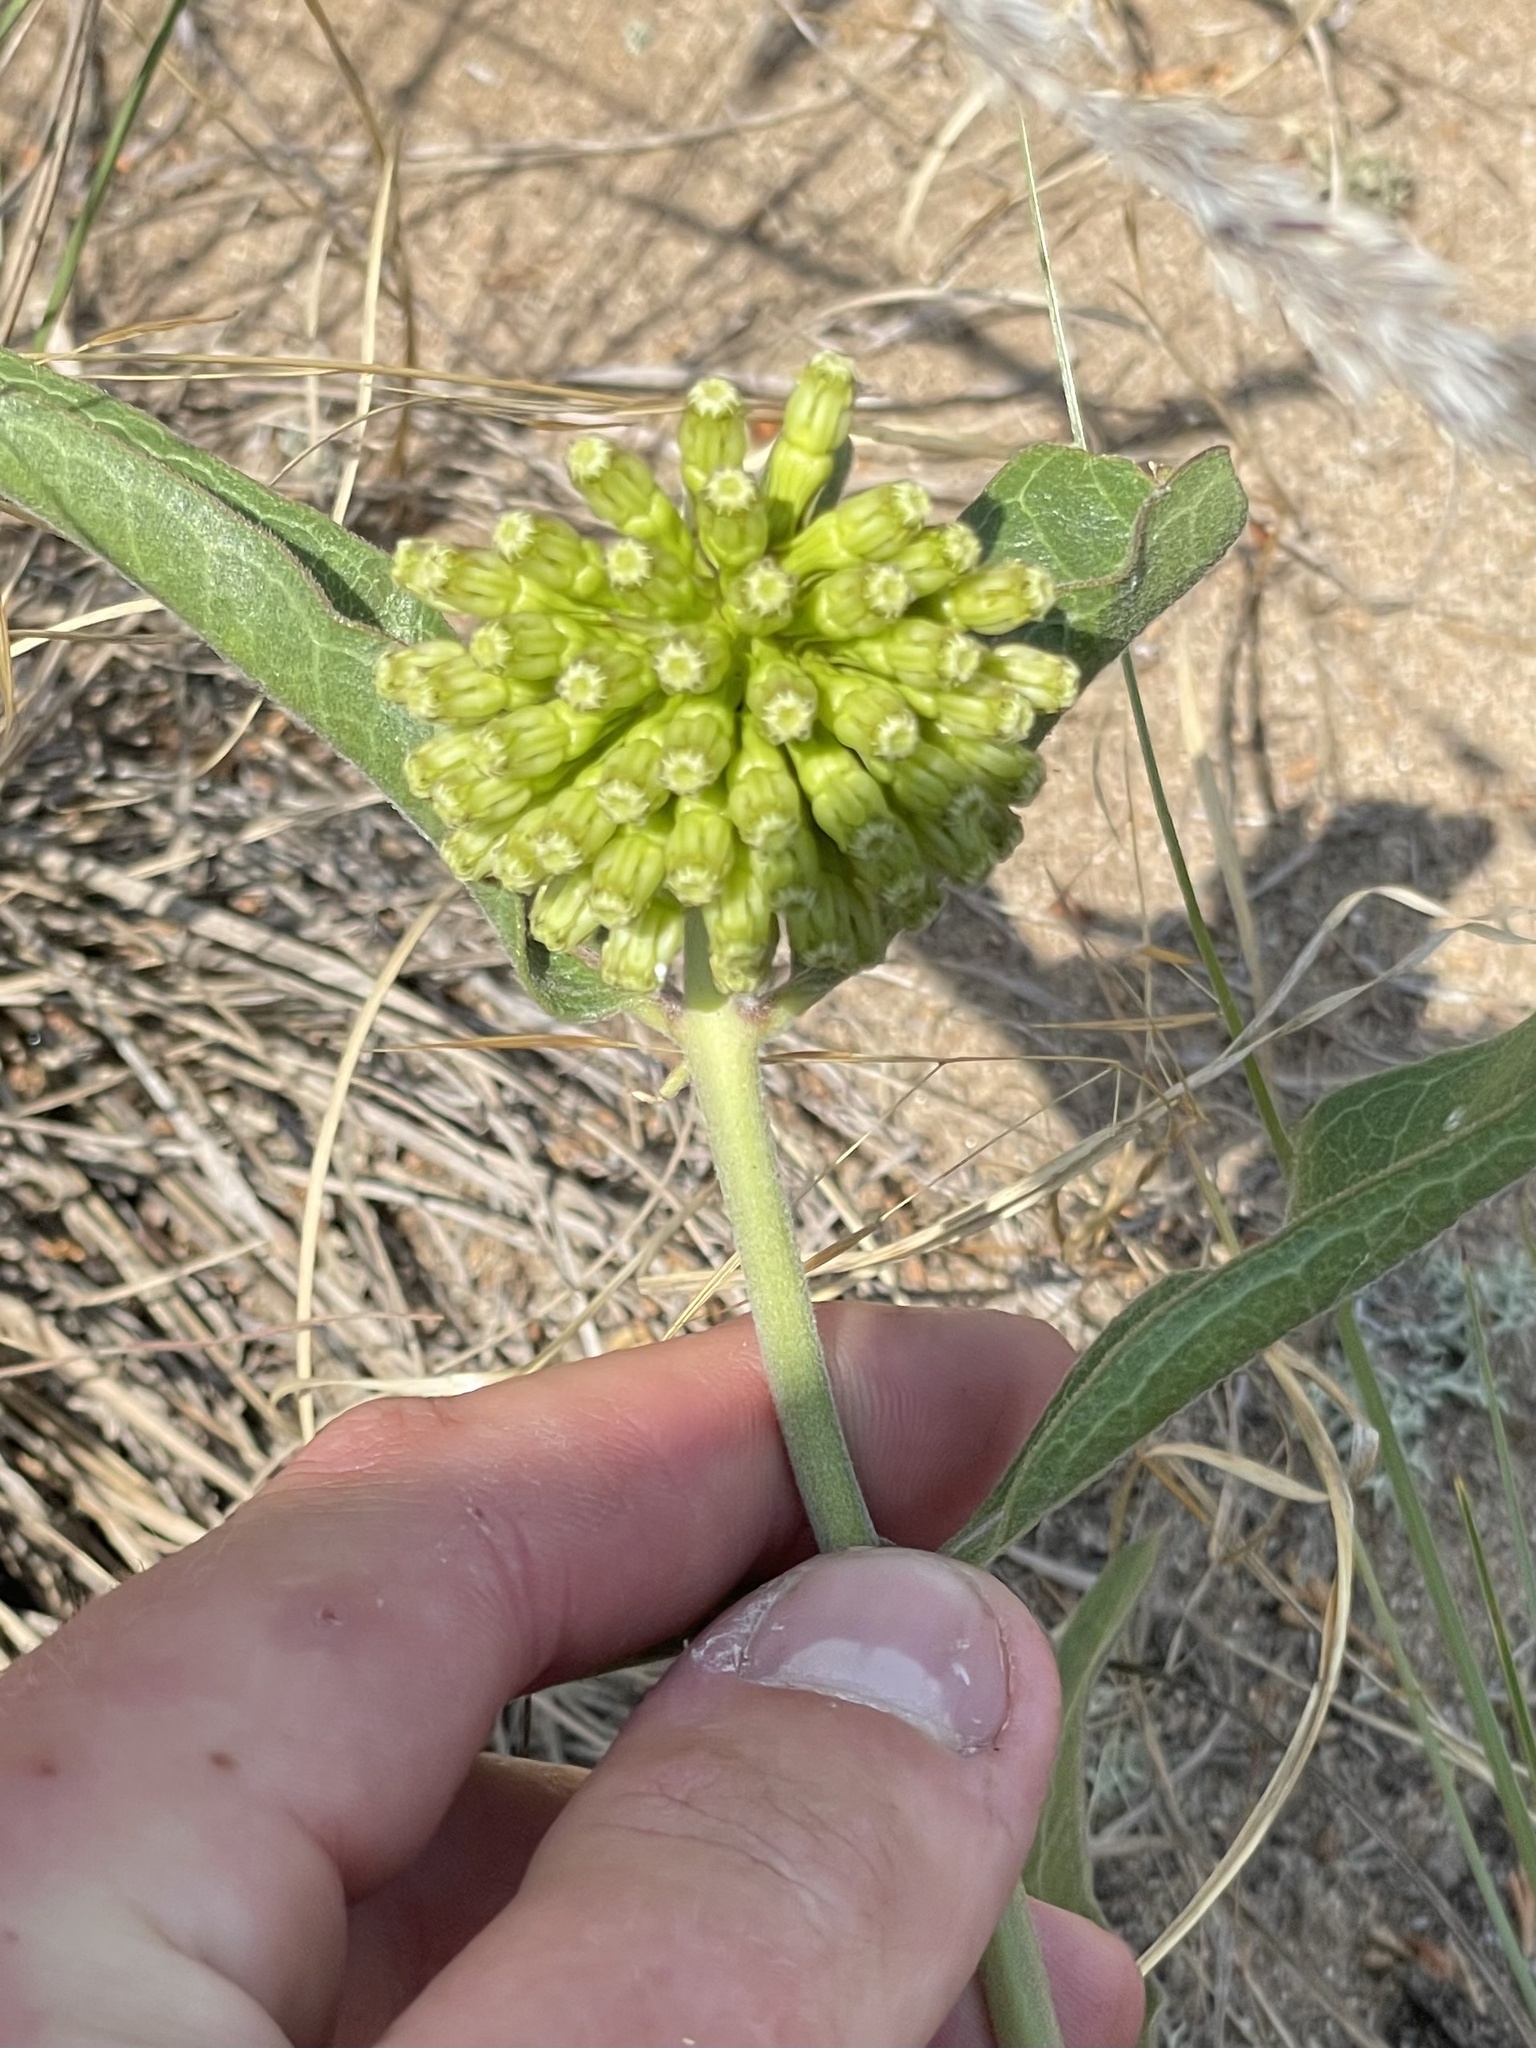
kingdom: Plantae
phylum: Tracheophyta
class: Magnoliopsida
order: Gentianales
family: Apocynaceae
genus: Asclepias
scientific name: Asclepias viridiflora
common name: Green comet milkweed
